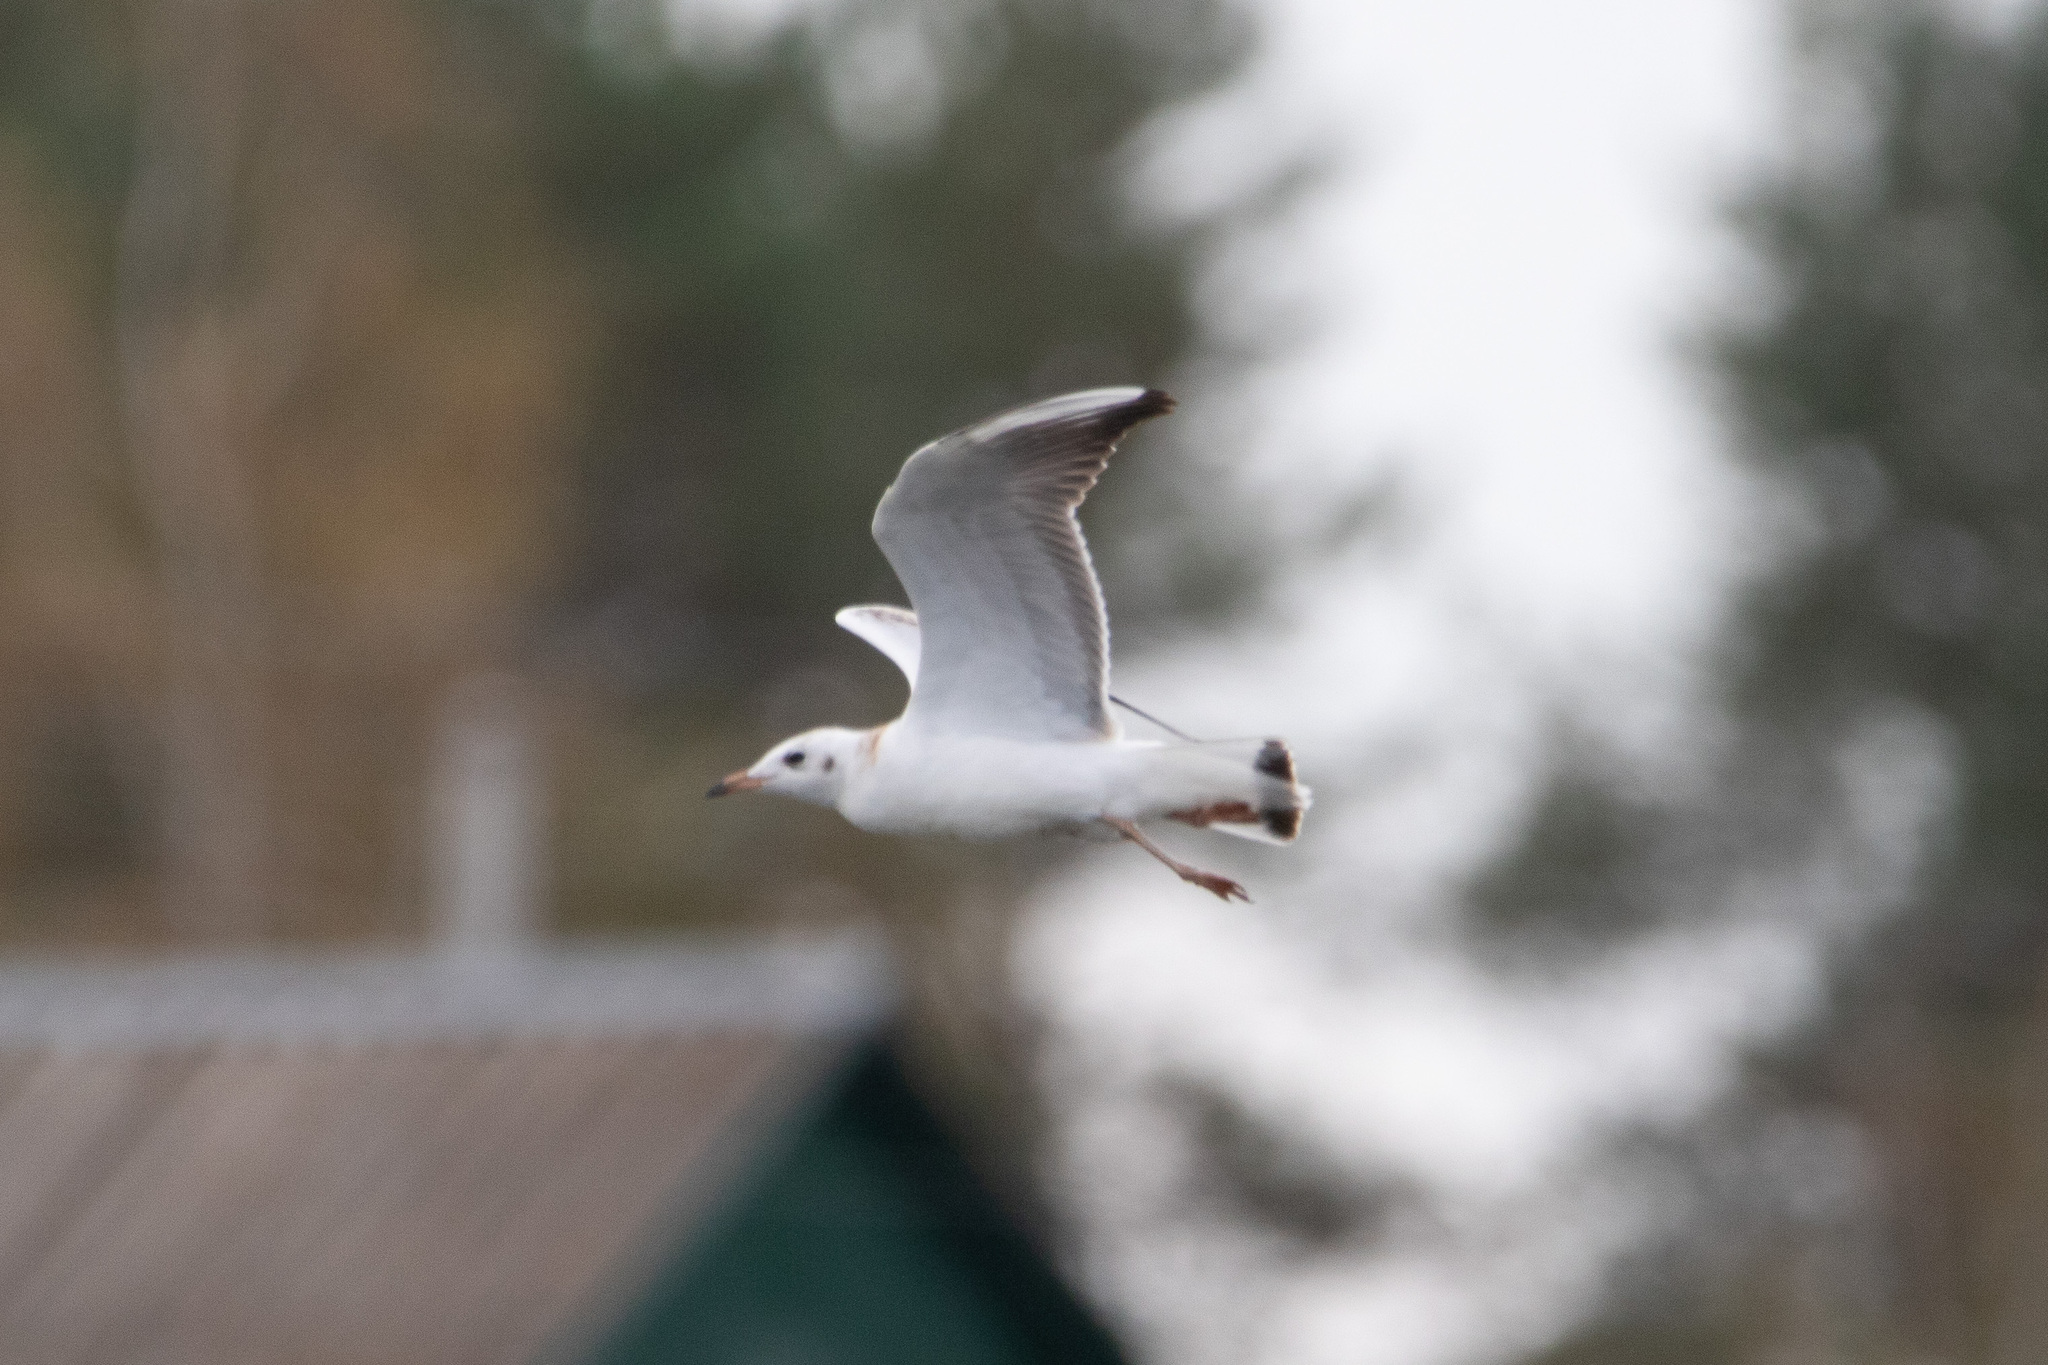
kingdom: Animalia
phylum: Chordata
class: Aves
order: Charadriiformes
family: Laridae
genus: Chroicocephalus
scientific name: Chroicocephalus ridibundus
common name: Black-headed gull
